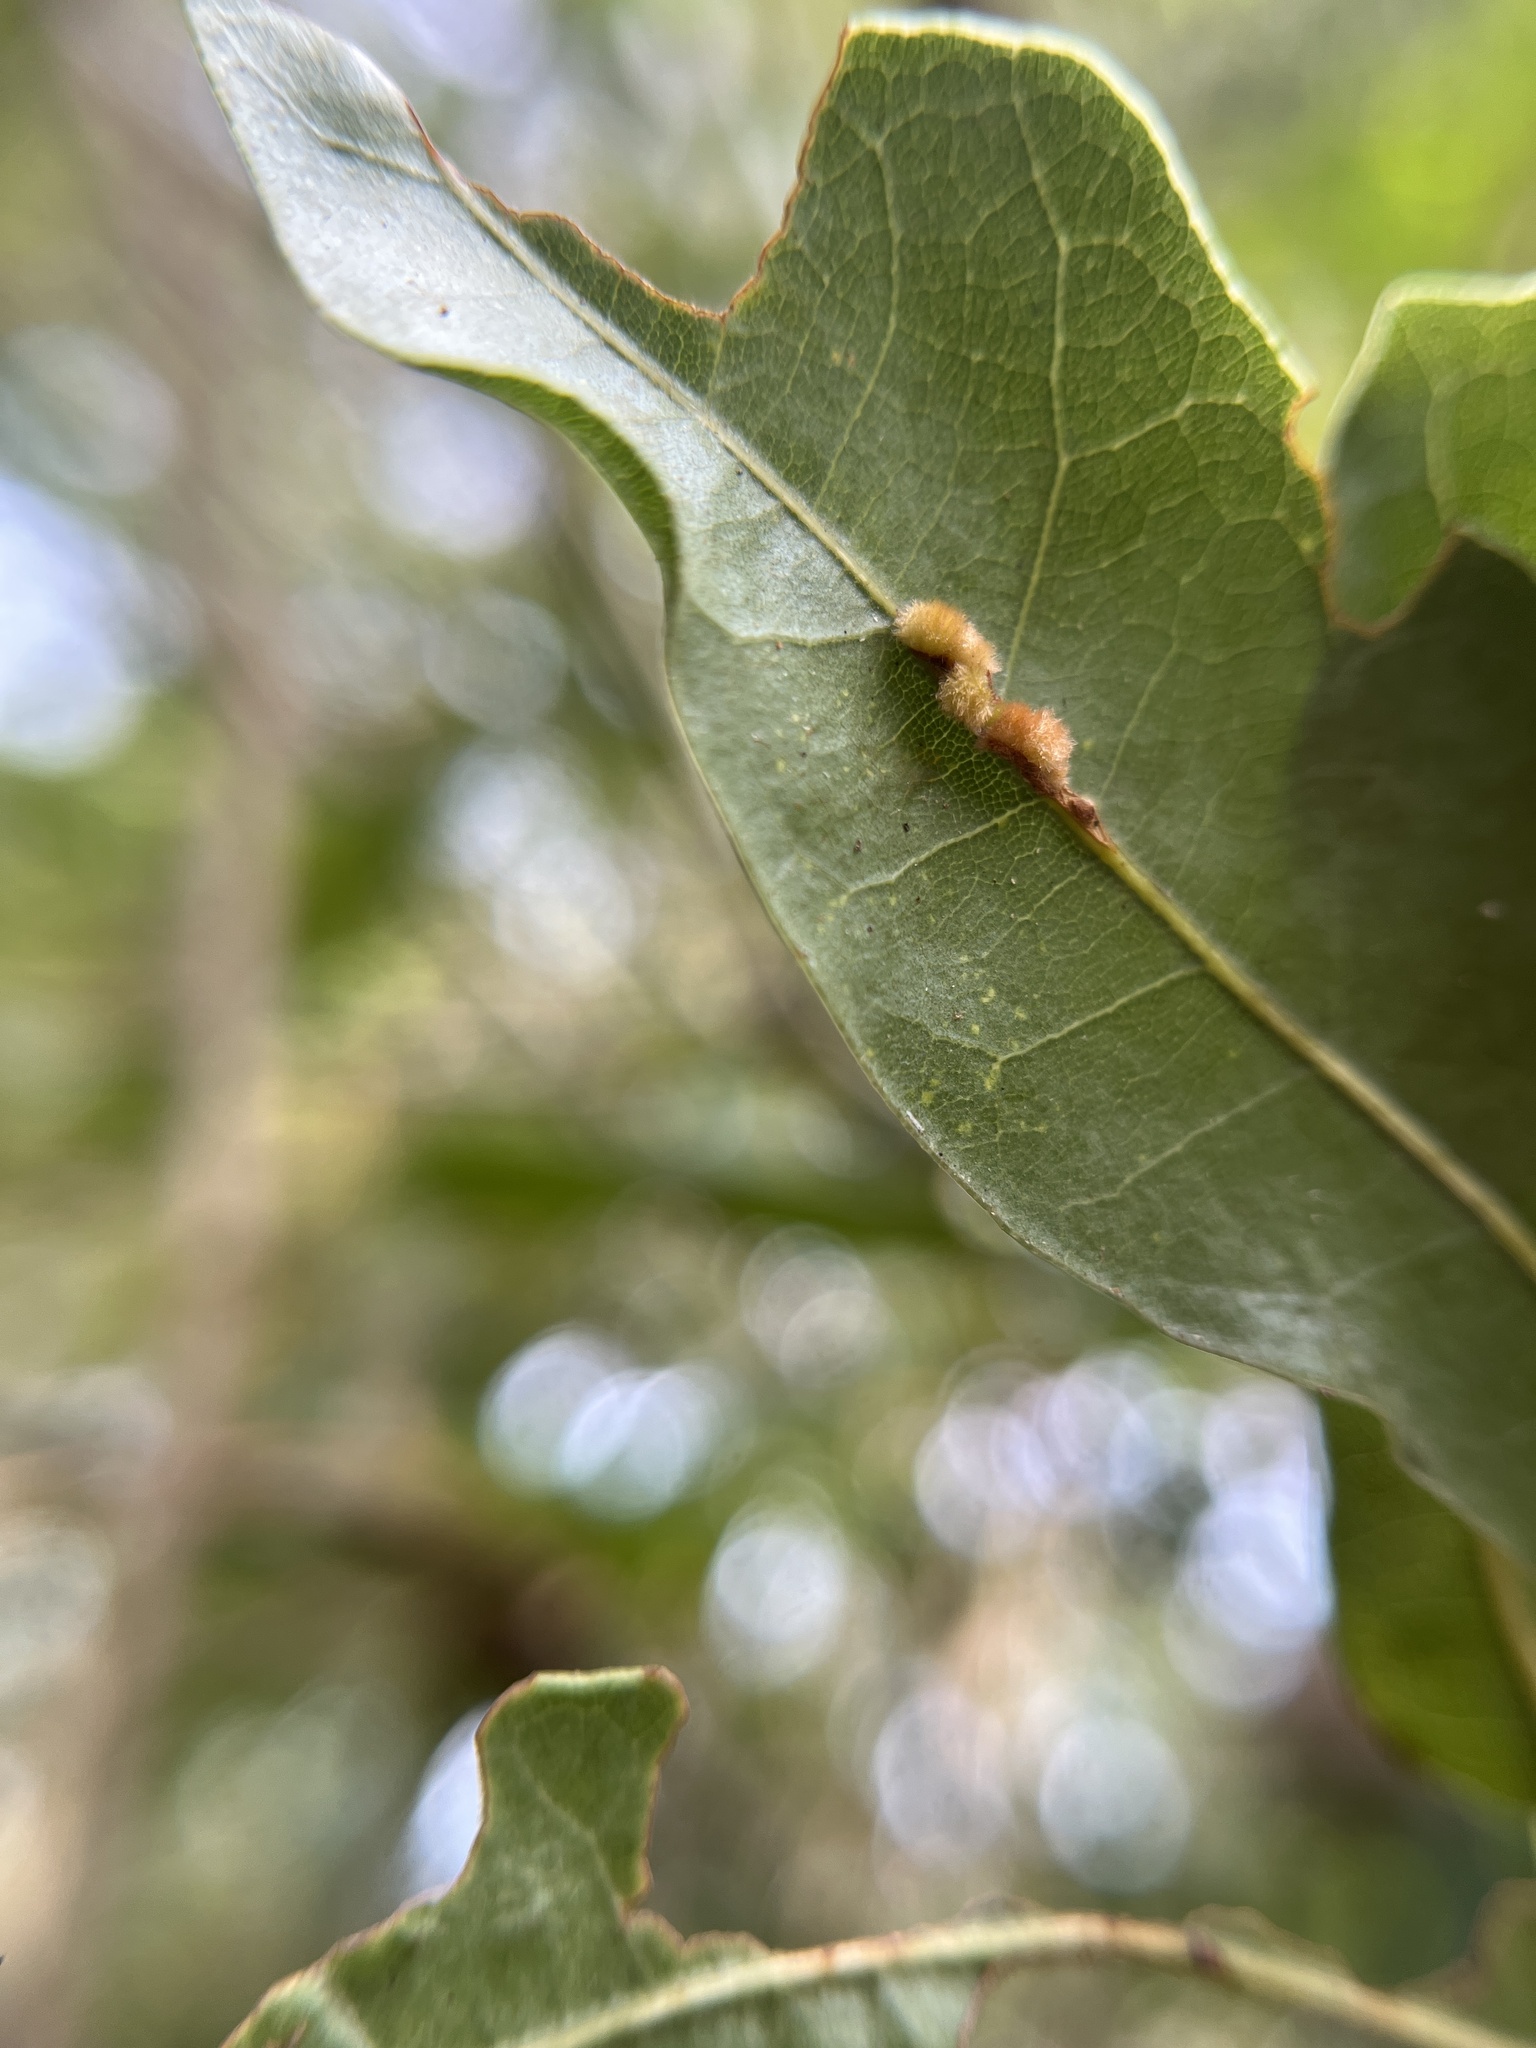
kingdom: Animalia
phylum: Arthropoda
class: Insecta
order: Hymenoptera
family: Cynipidae
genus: Andricus
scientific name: Andricus Druon quercuslanigerum
